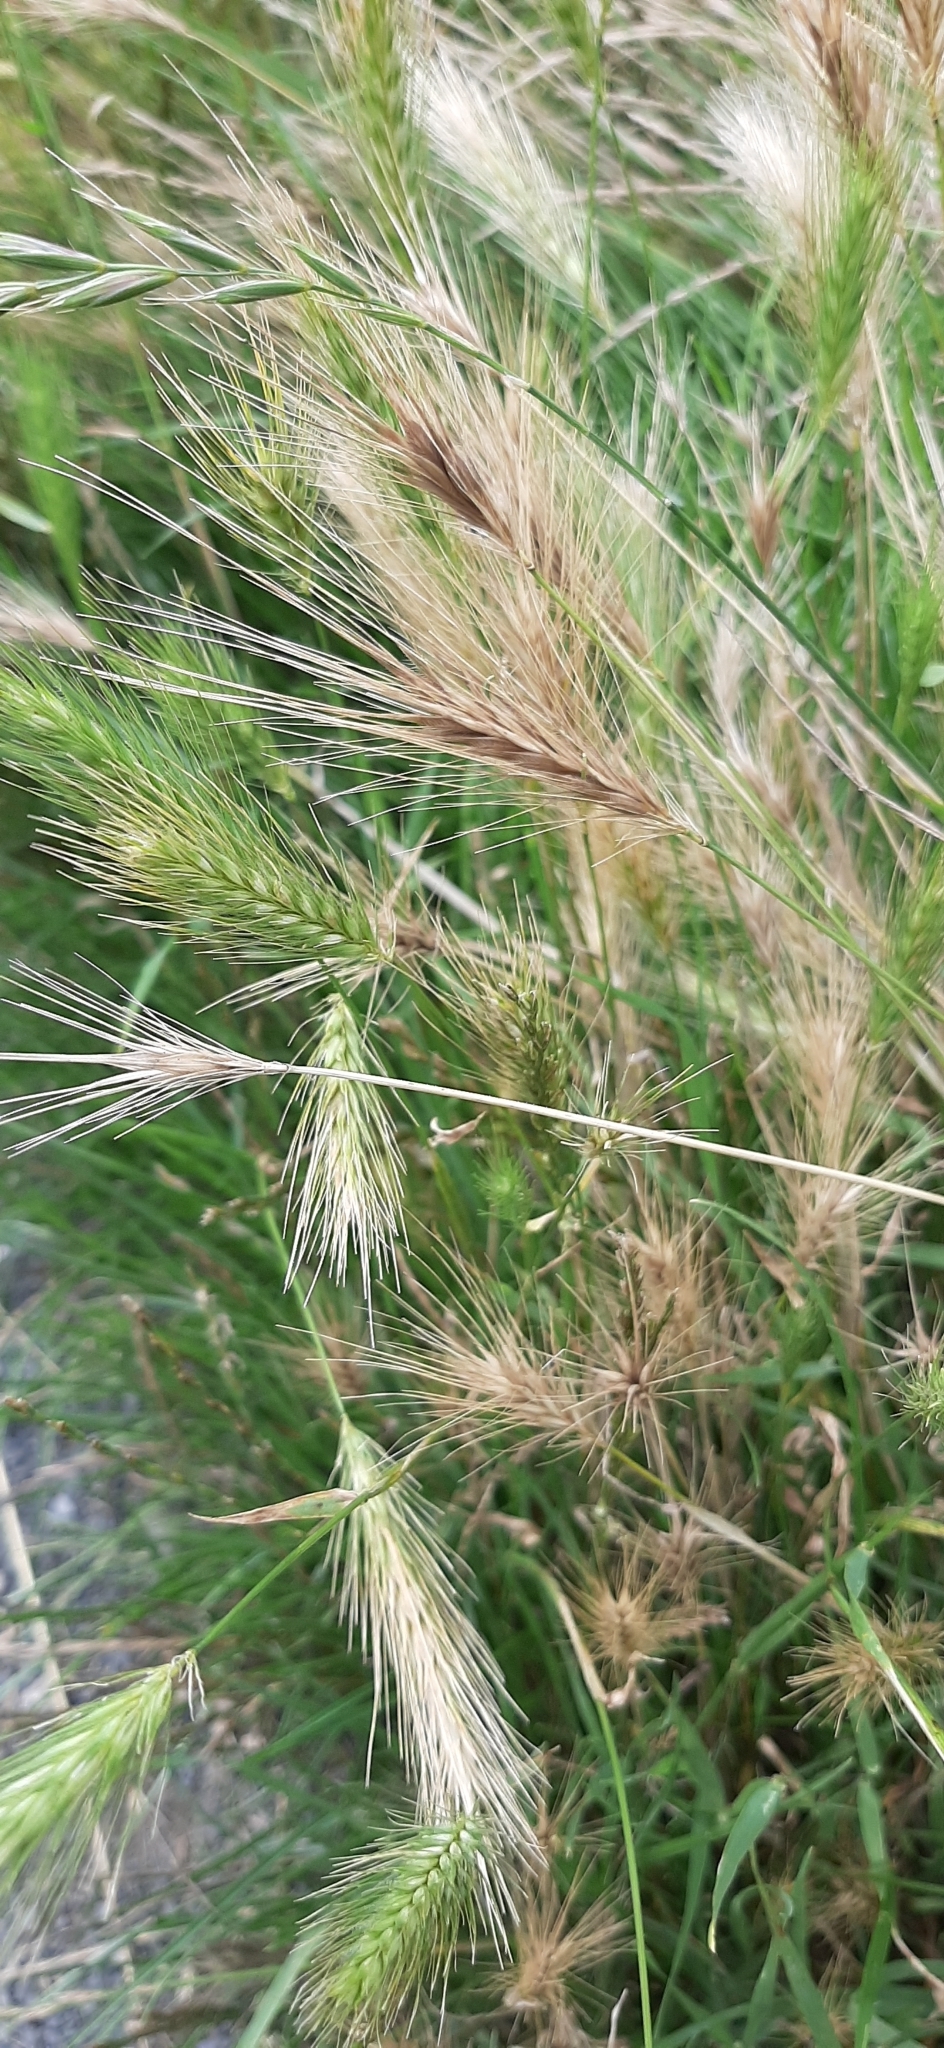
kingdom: Plantae
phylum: Tracheophyta
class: Liliopsida
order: Poales
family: Poaceae
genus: Hordeum
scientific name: Hordeum murinum
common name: Wall barley
